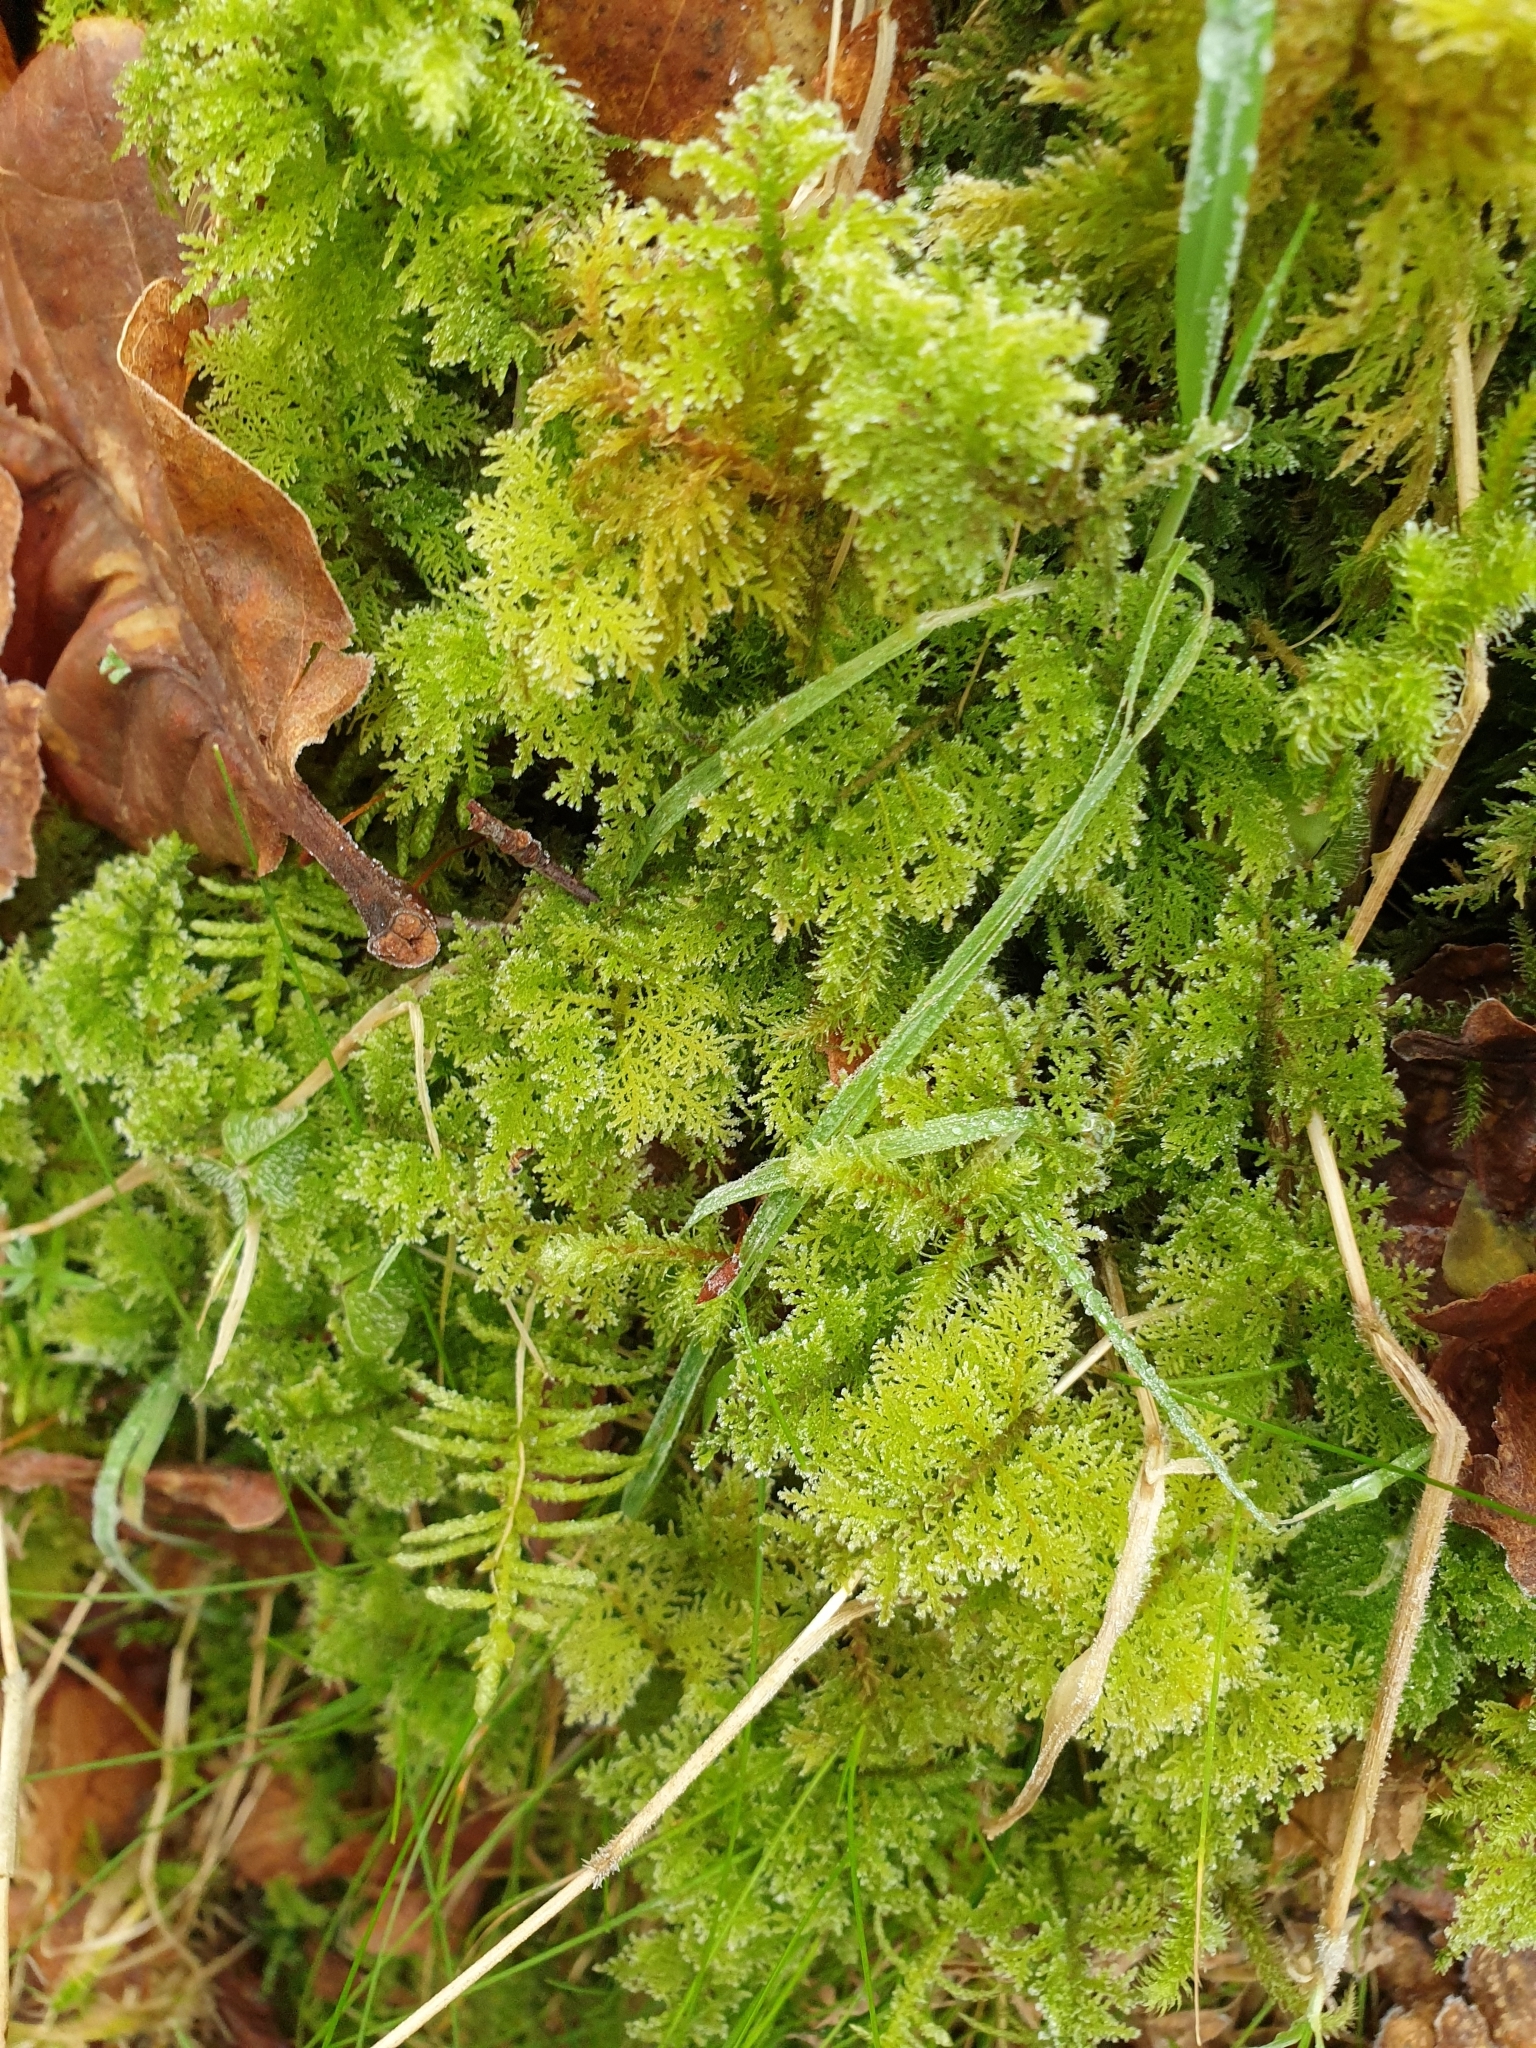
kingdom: Plantae
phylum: Bryophyta
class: Bryopsida
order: Hypnales
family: Thuidiaceae
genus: Thuidium
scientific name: Thuidium tamariscinum
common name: Common tamarisk-moss
